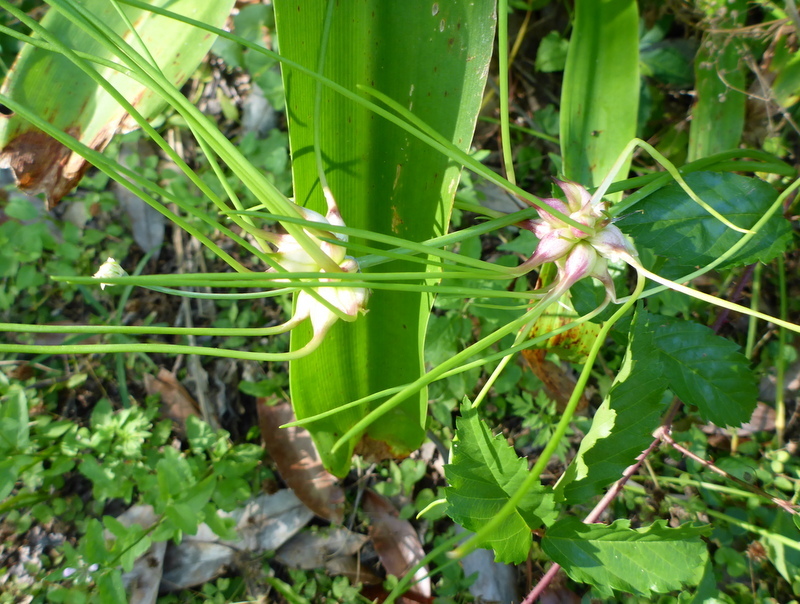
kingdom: Plantae
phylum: Tracheophyta
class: Liliopsida
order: Asparagales
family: Amaryllidaceae
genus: Allium
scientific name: Allium canadense
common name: Meadow garlic
